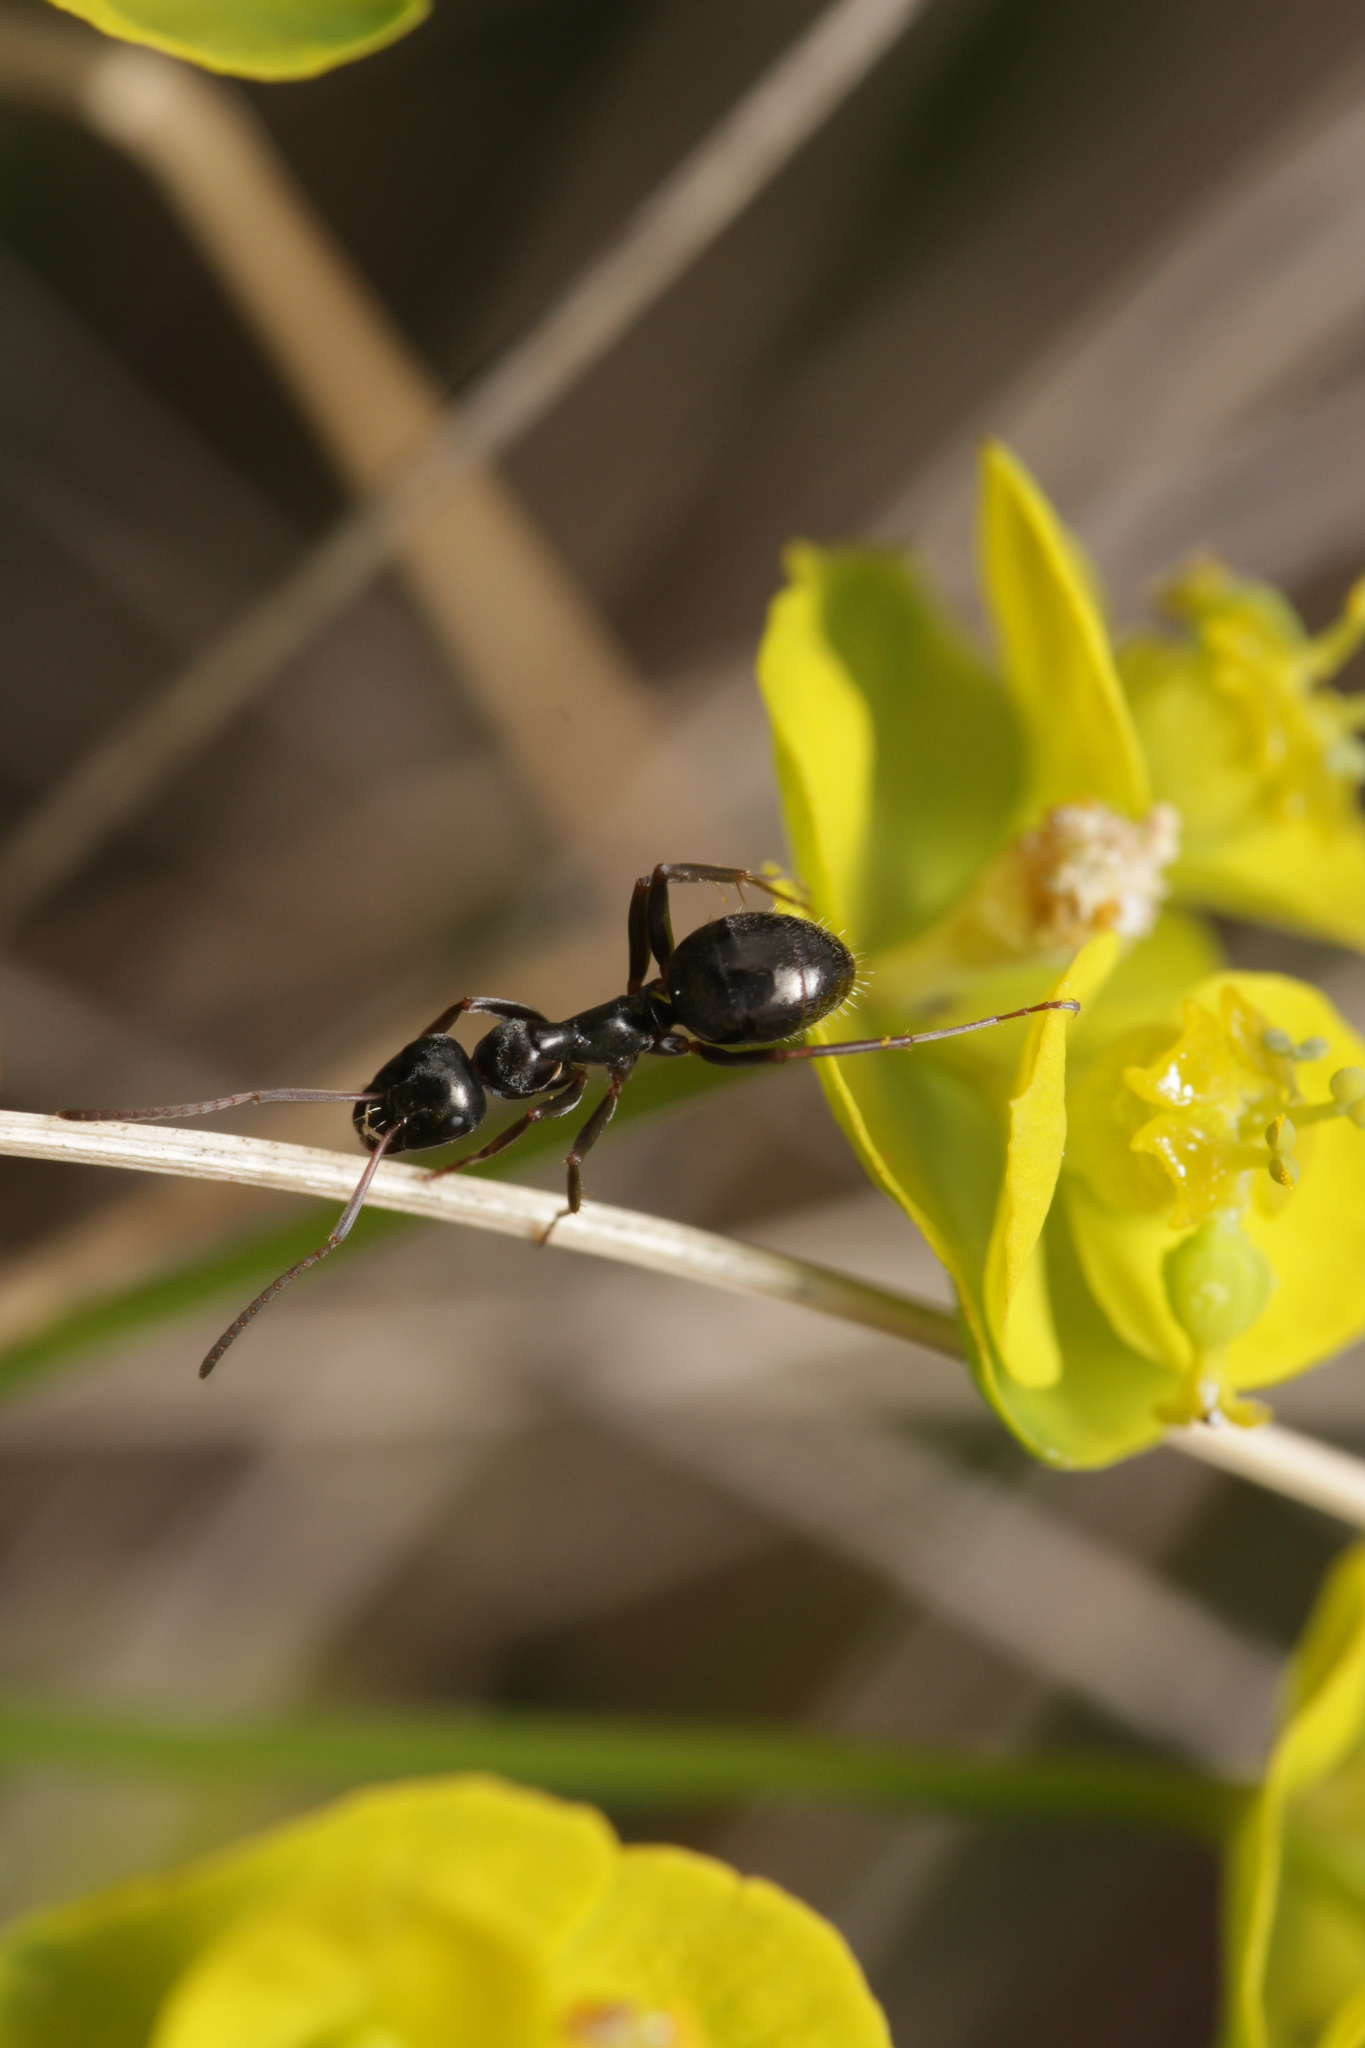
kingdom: Animalia
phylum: Arthropoda
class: Insecta
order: Hymenoptera
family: Formicidae
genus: Formica
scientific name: Formica gagates
